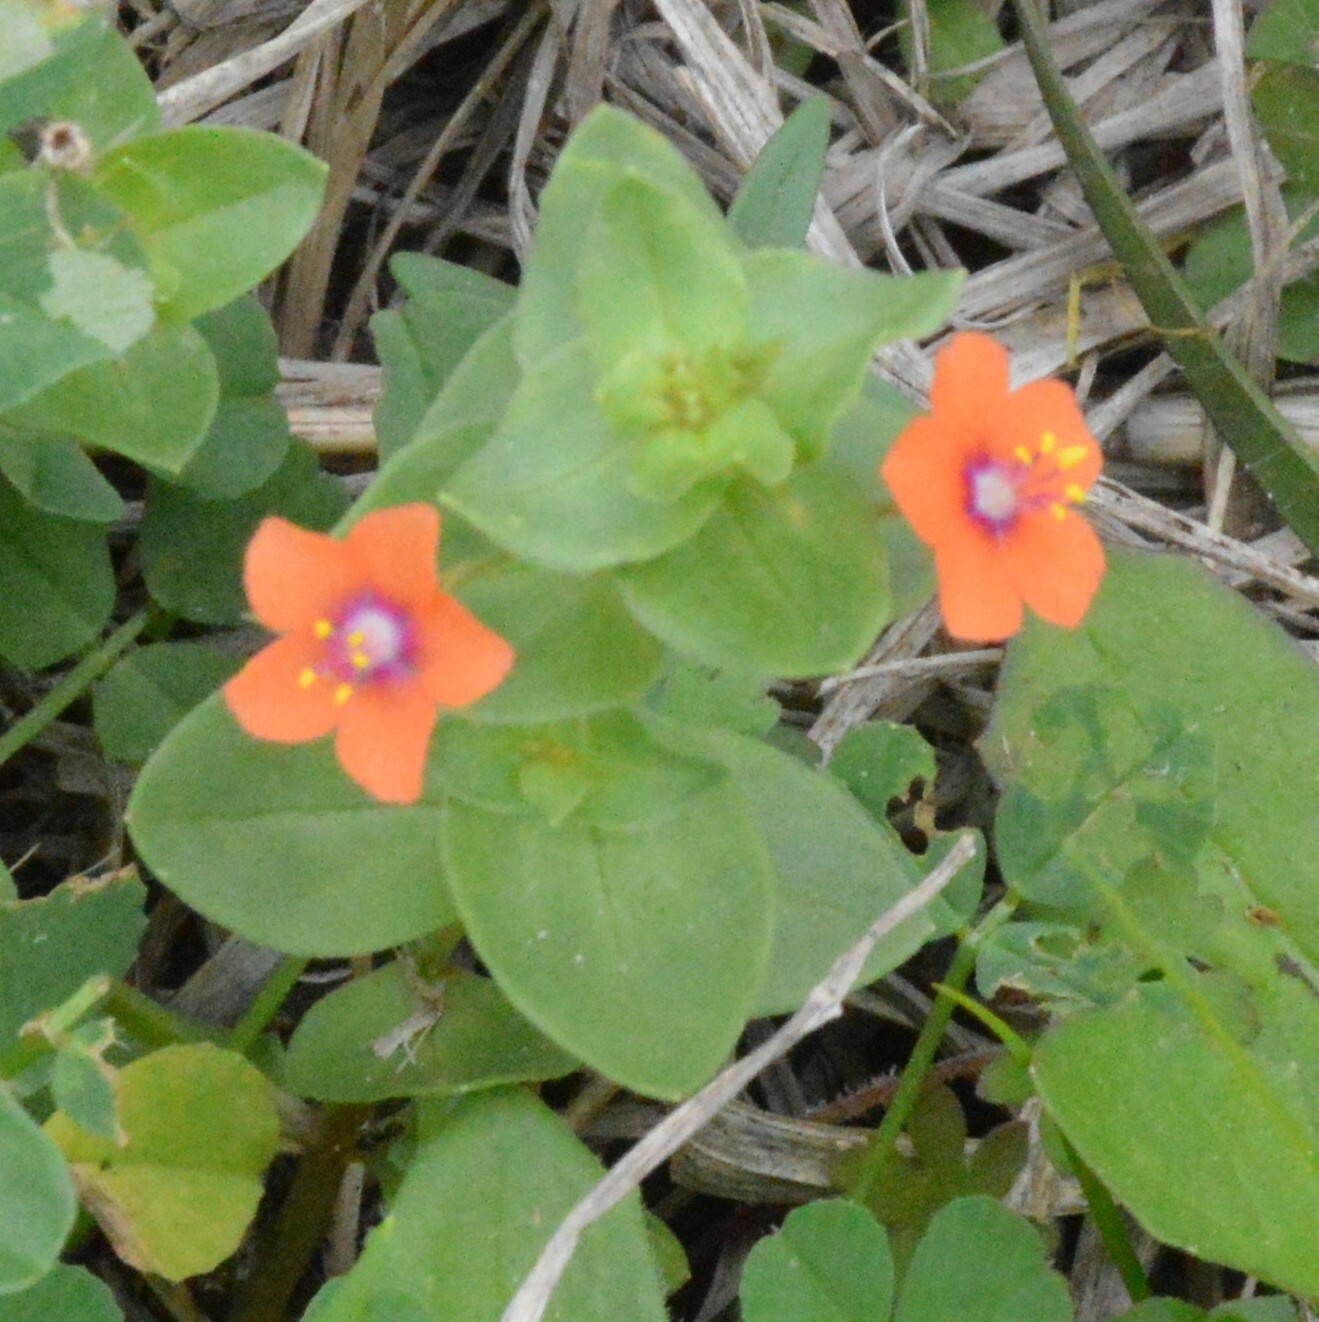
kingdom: Plantae
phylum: Tracheophyta
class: Magnoliopsida
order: Ericales
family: Primulaceae
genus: Lysimachia
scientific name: Lysimachia arvensis
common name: Scarlet pimpernel
